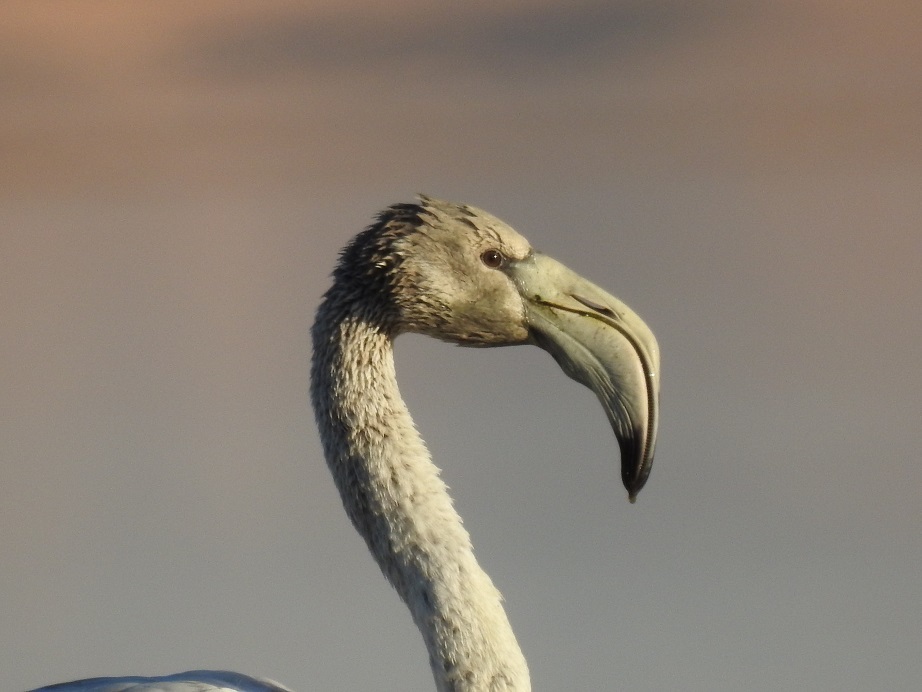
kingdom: Animalia
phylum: Chordata
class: Aves
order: Phoenicopteriformes
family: Phoenicopteridae
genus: Phoenicopterus
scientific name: Phoenicopterus roseus
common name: Greater flamingo
